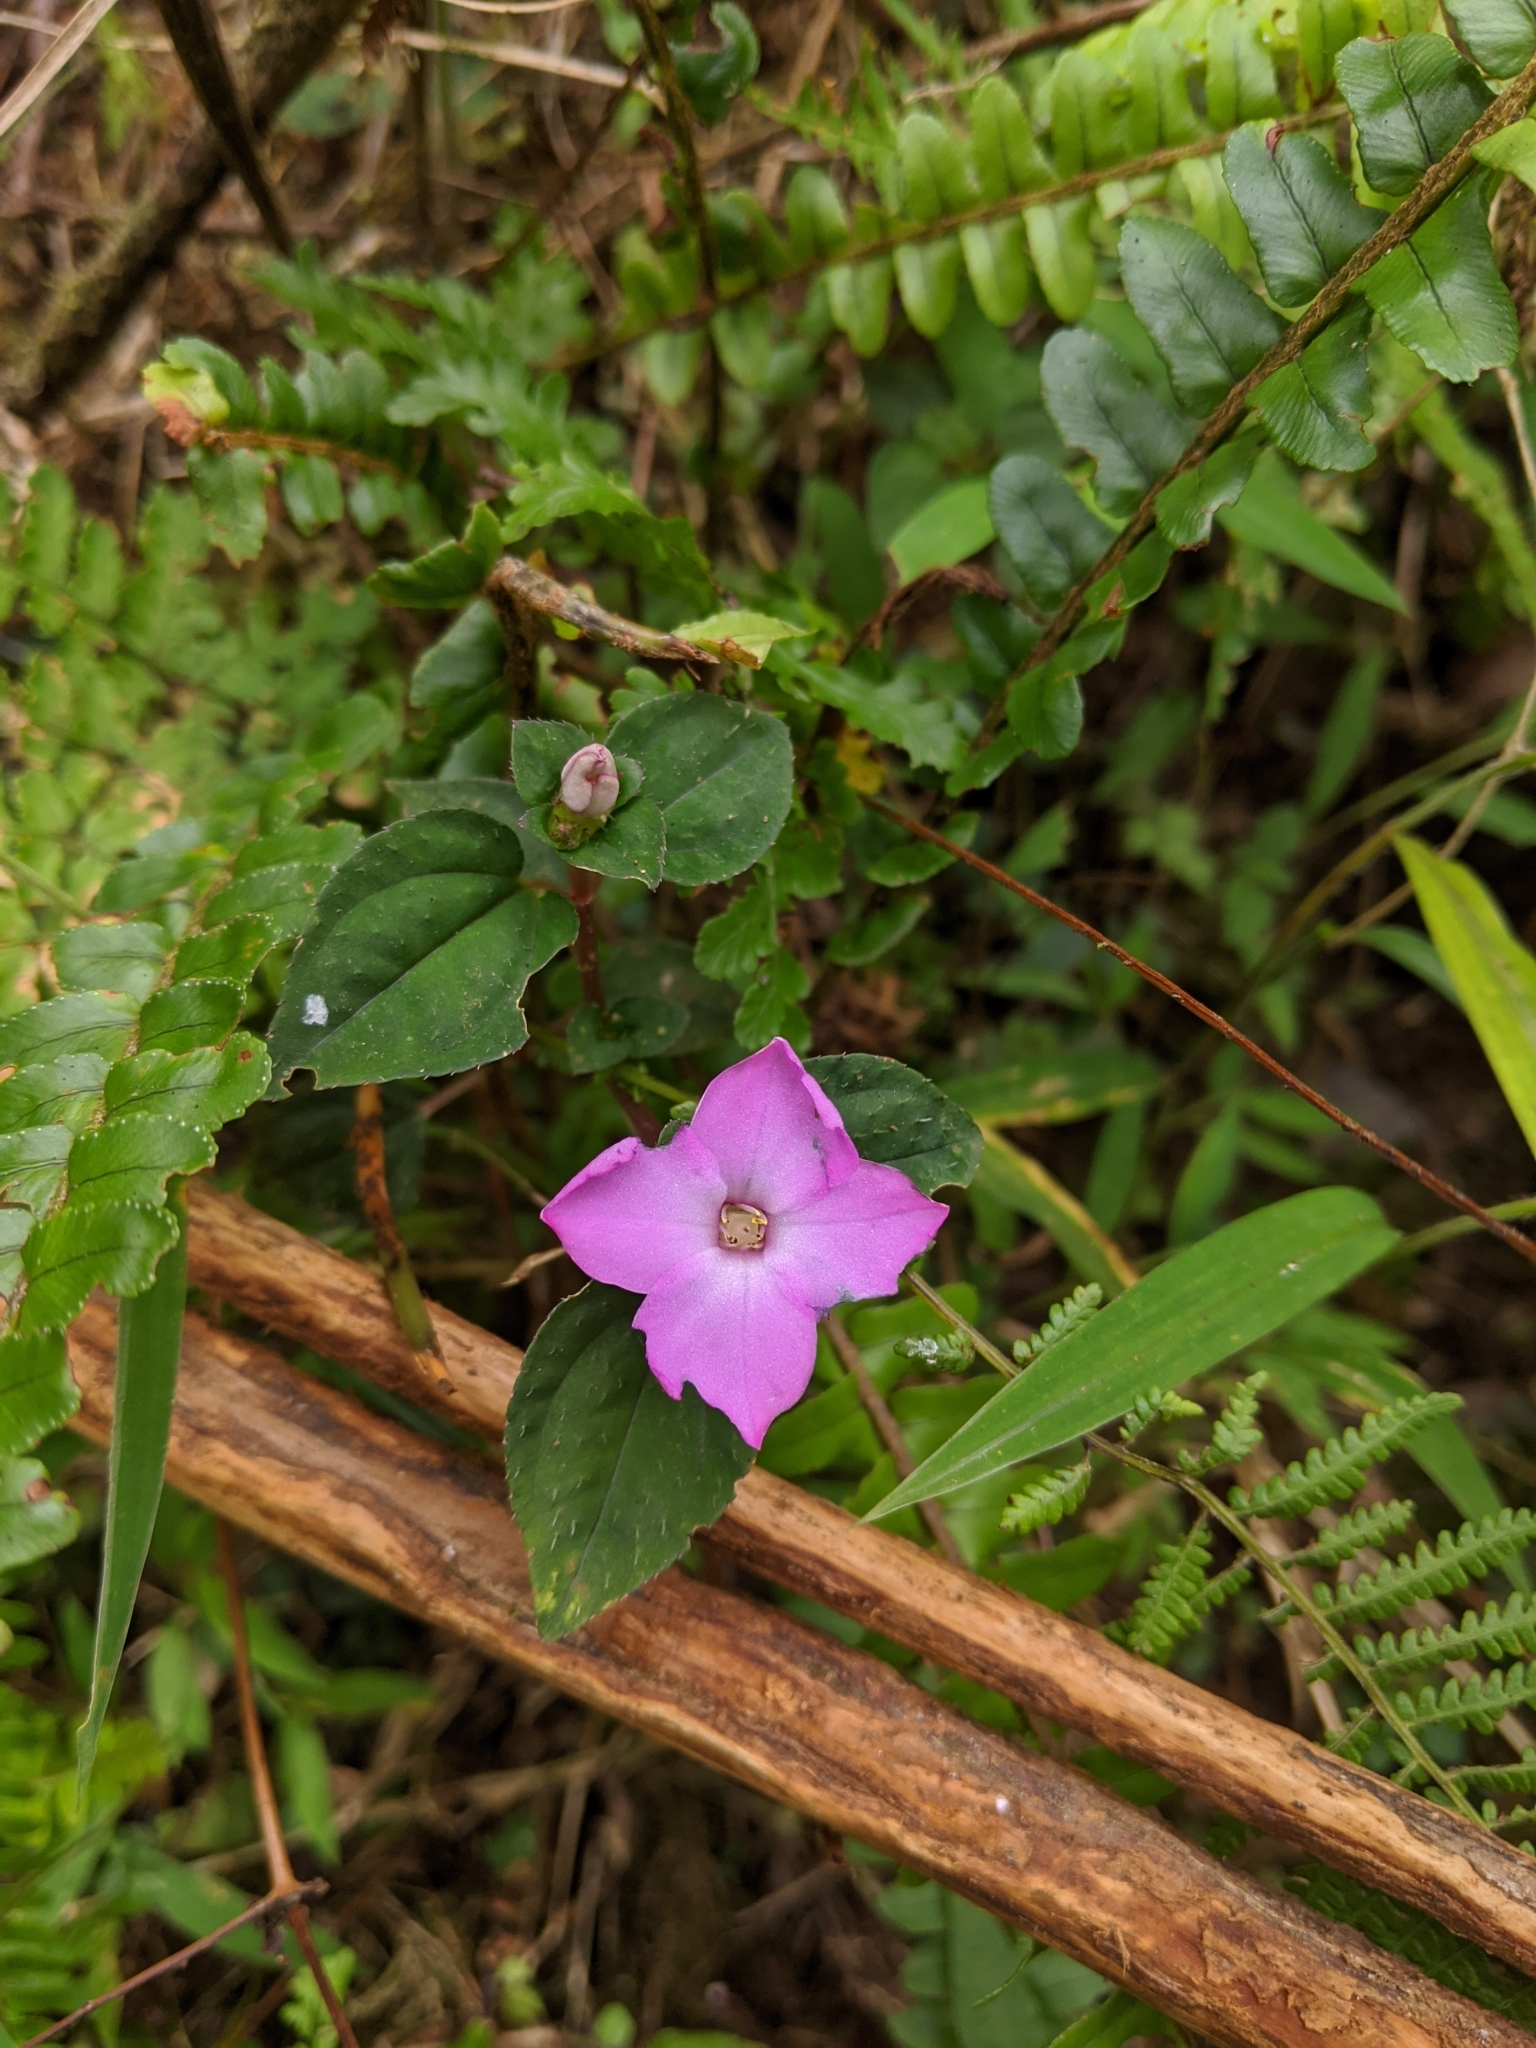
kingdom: Plantae
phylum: Tracheophyta
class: Magnoliopsida
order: Myrtales
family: Melastomataceae
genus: Sarcopyramis
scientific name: Sarcopyramis bodinieri
